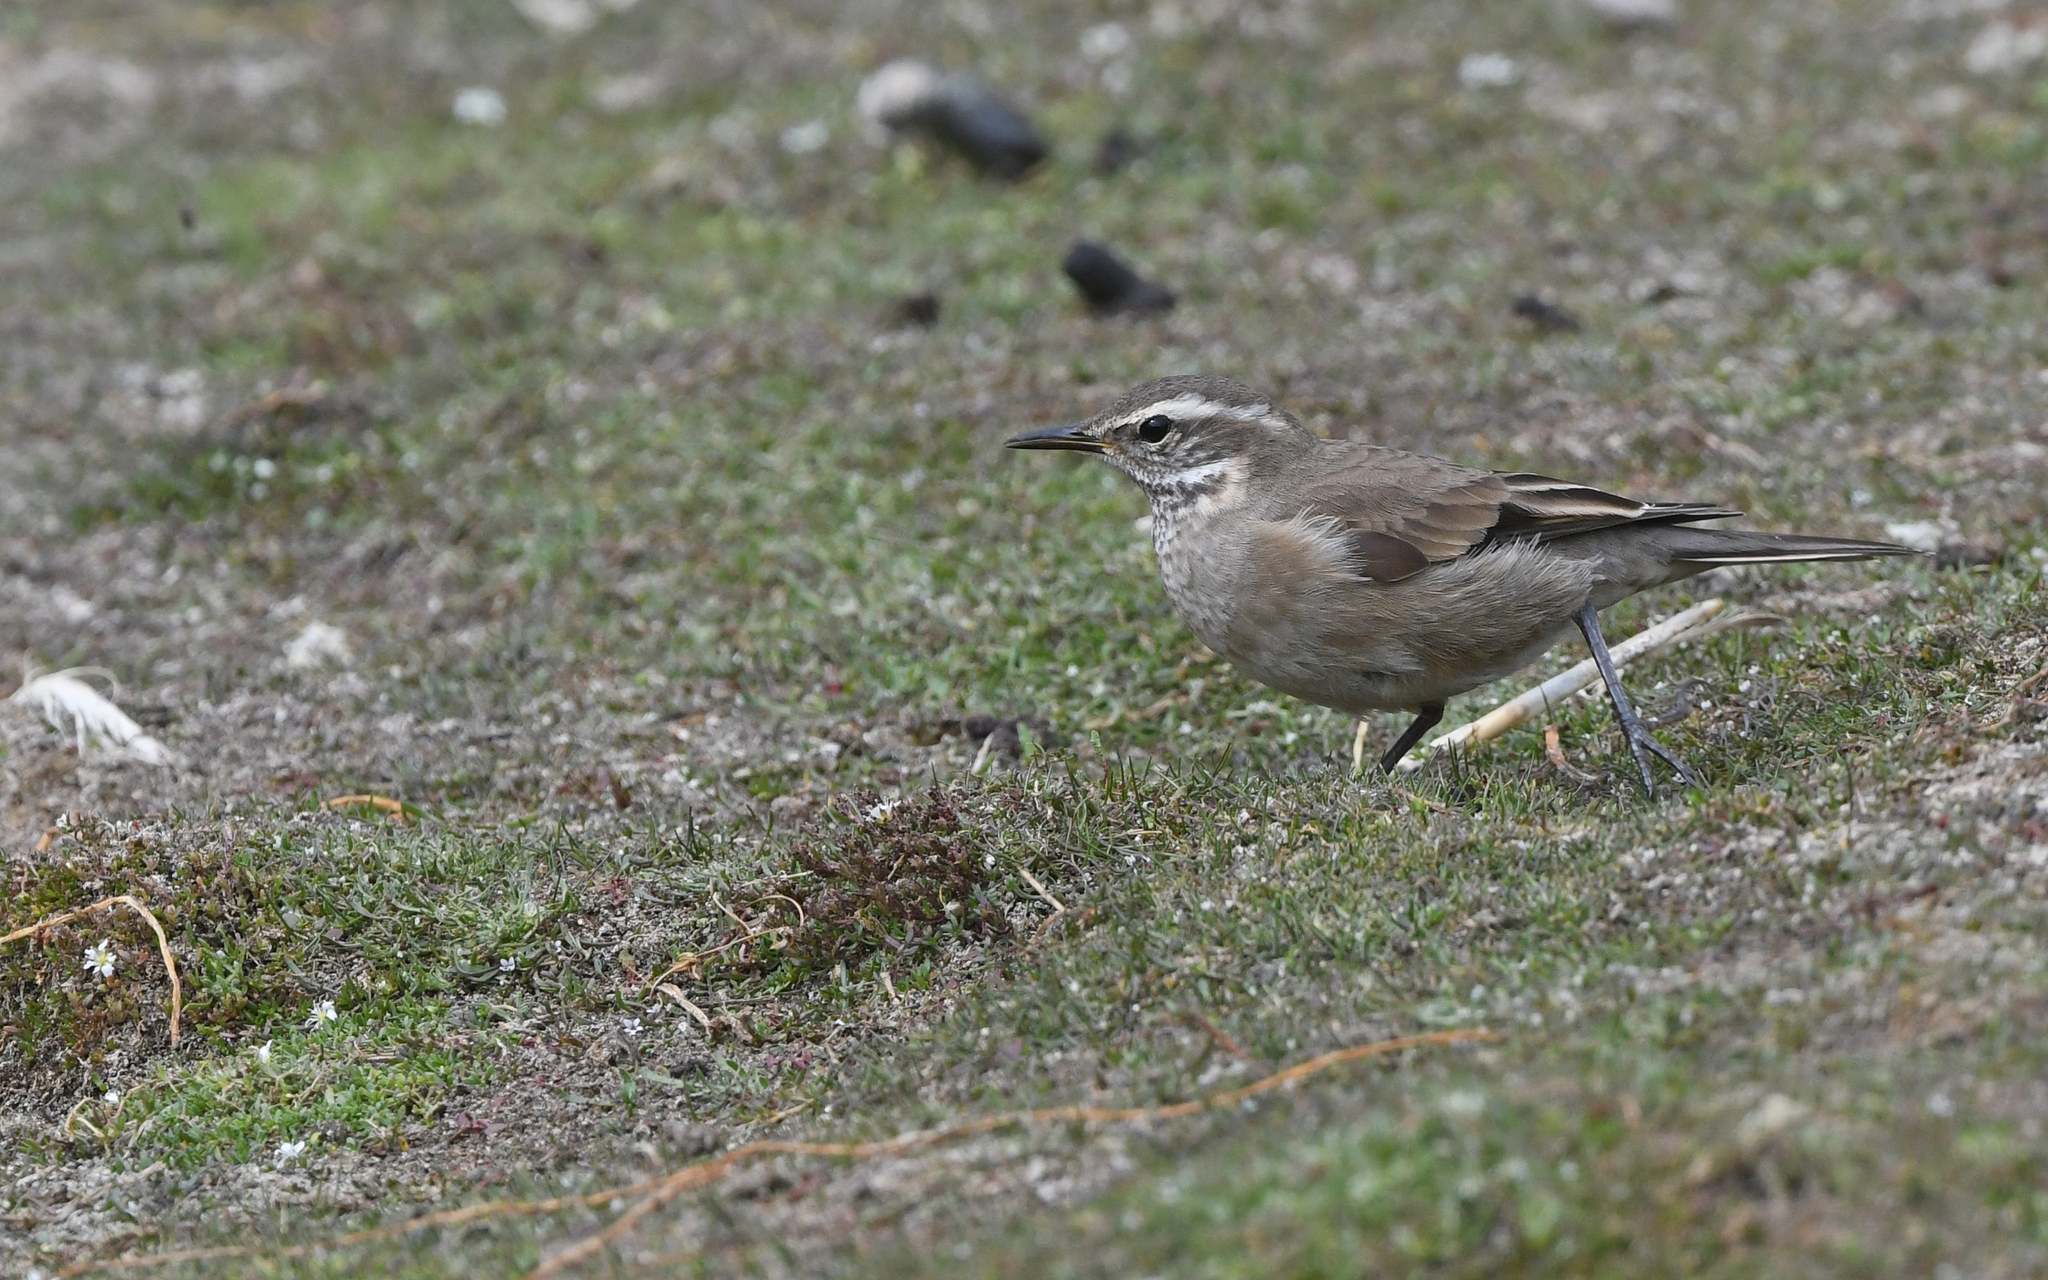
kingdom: Animalia
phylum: Chordata
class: Aves
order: Passeriformes
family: Furnariidae
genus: Cinclodes
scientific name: Cinclodes fuscus
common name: Buff-winged cinclodes
